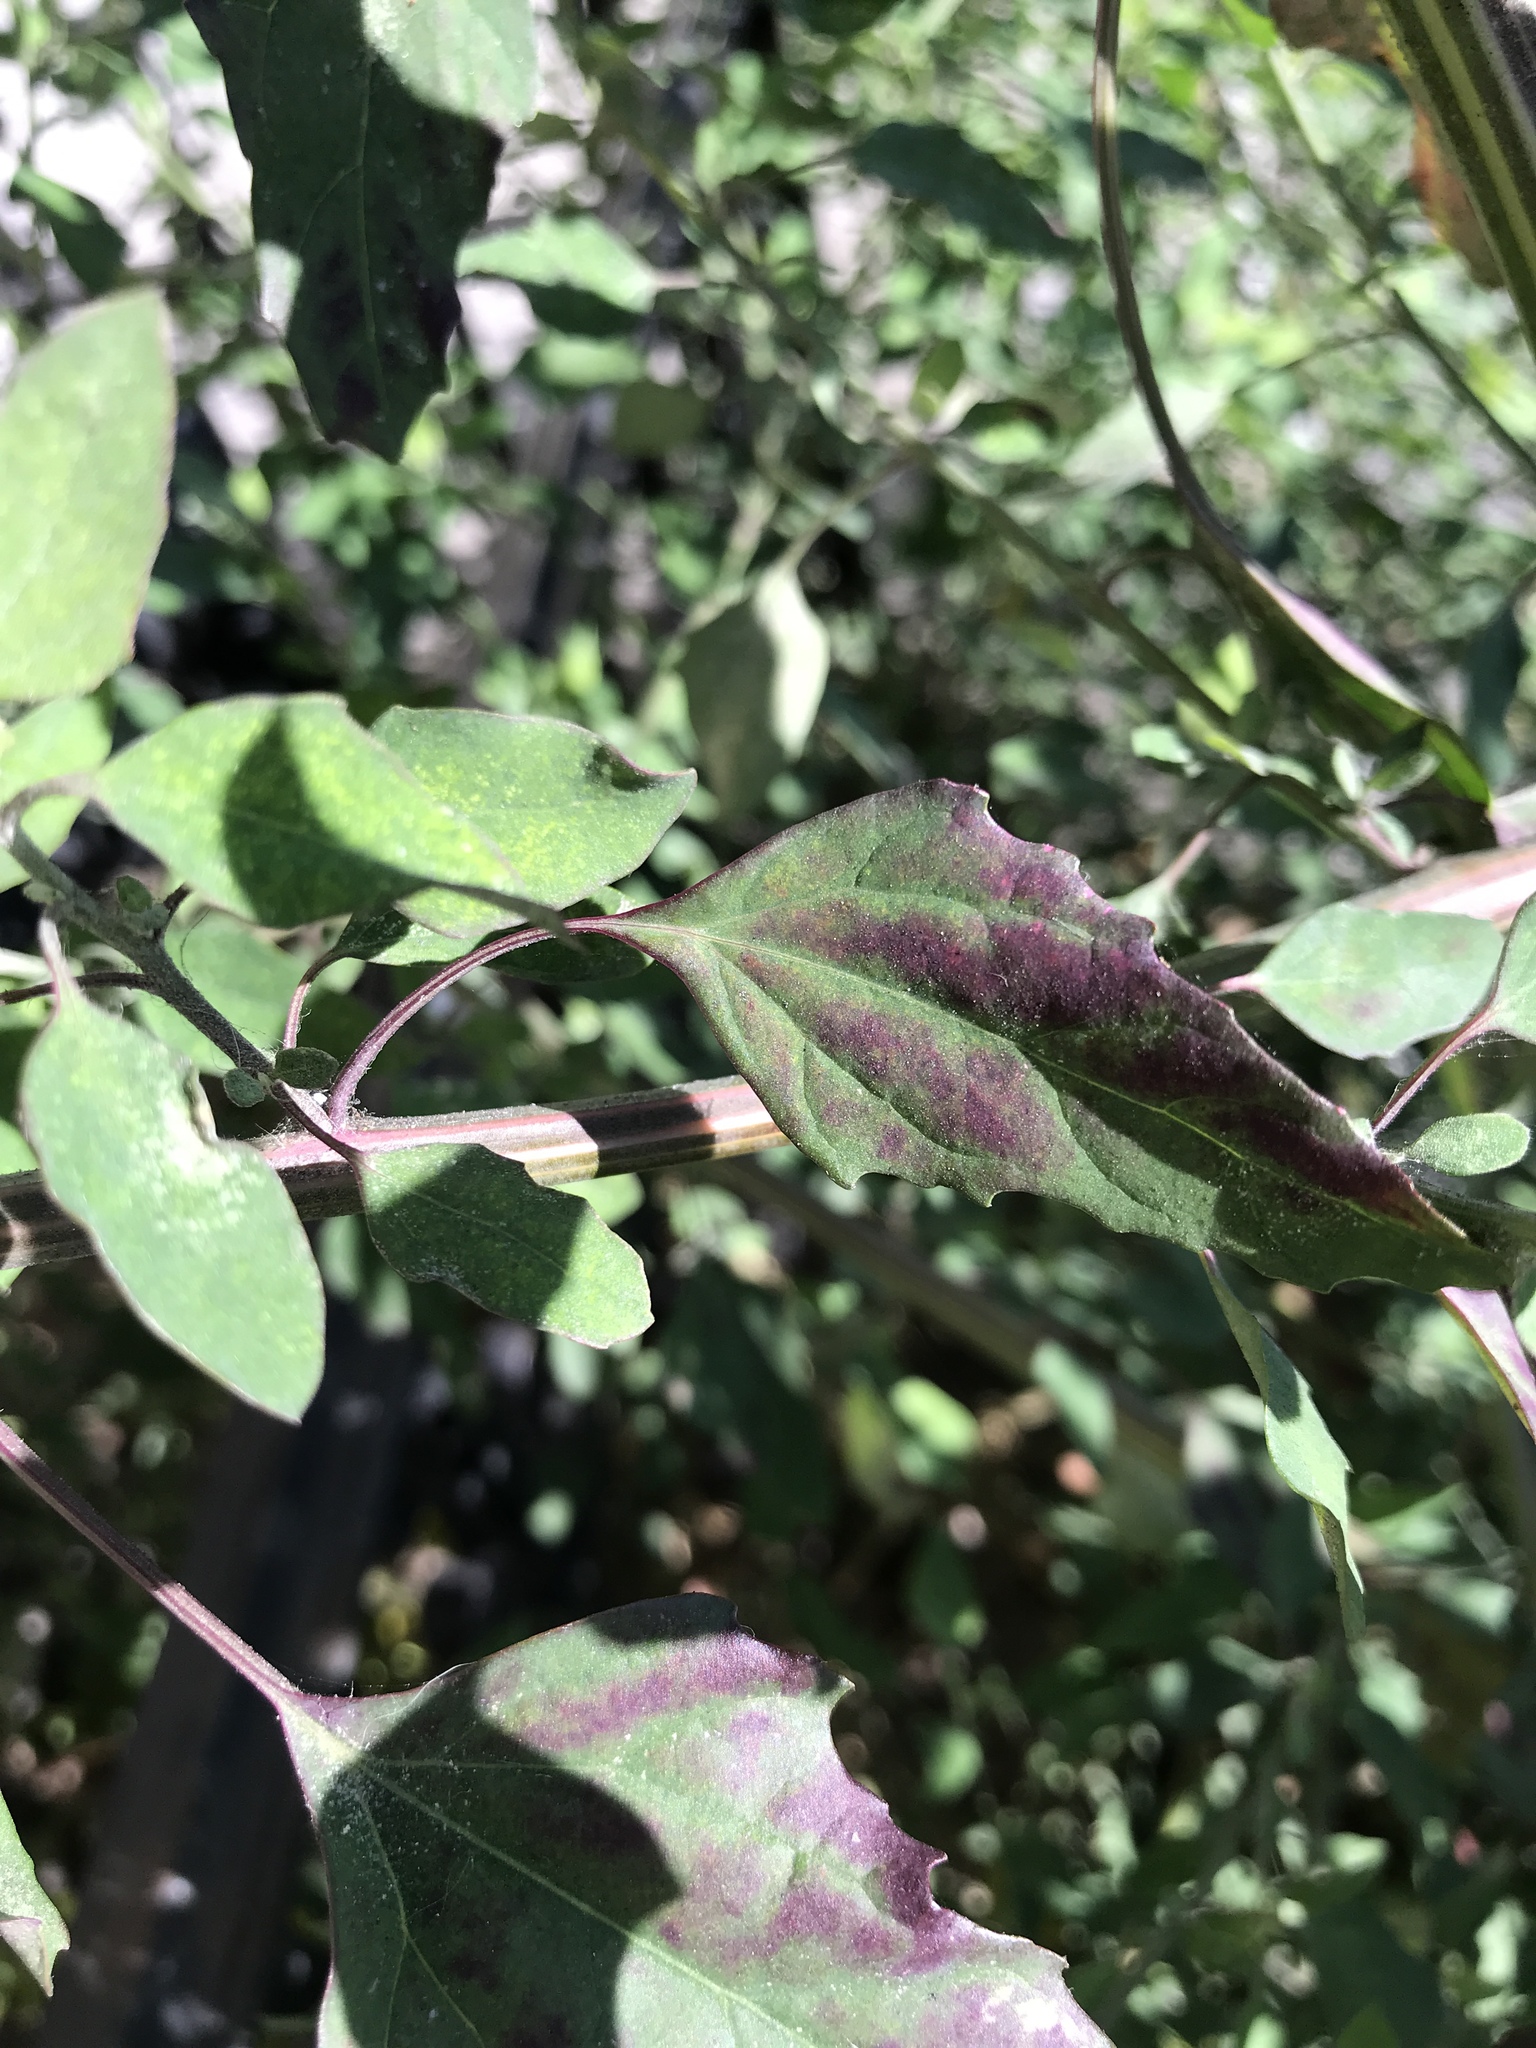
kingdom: Plantae
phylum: Tracheophyta
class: Magnoliopsida
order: Caryophyllales
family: Amaranthaceae
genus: Chenopodium
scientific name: Chenopodium album
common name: Fat-hen
